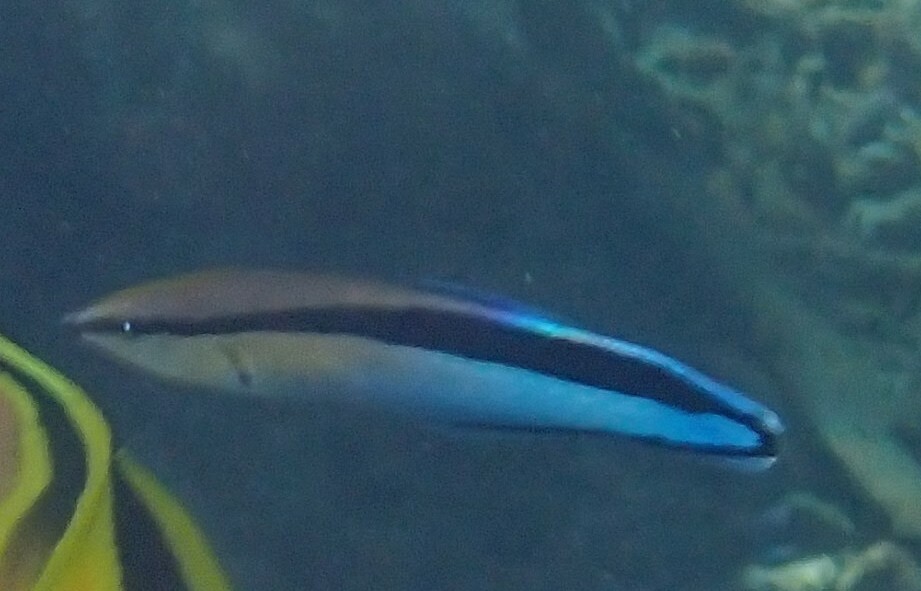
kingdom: Animalia
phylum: Chordata
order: Perciformes
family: Labridae
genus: Labroides
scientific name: Labroides dimidiatus
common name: Blue diesel wrasse
